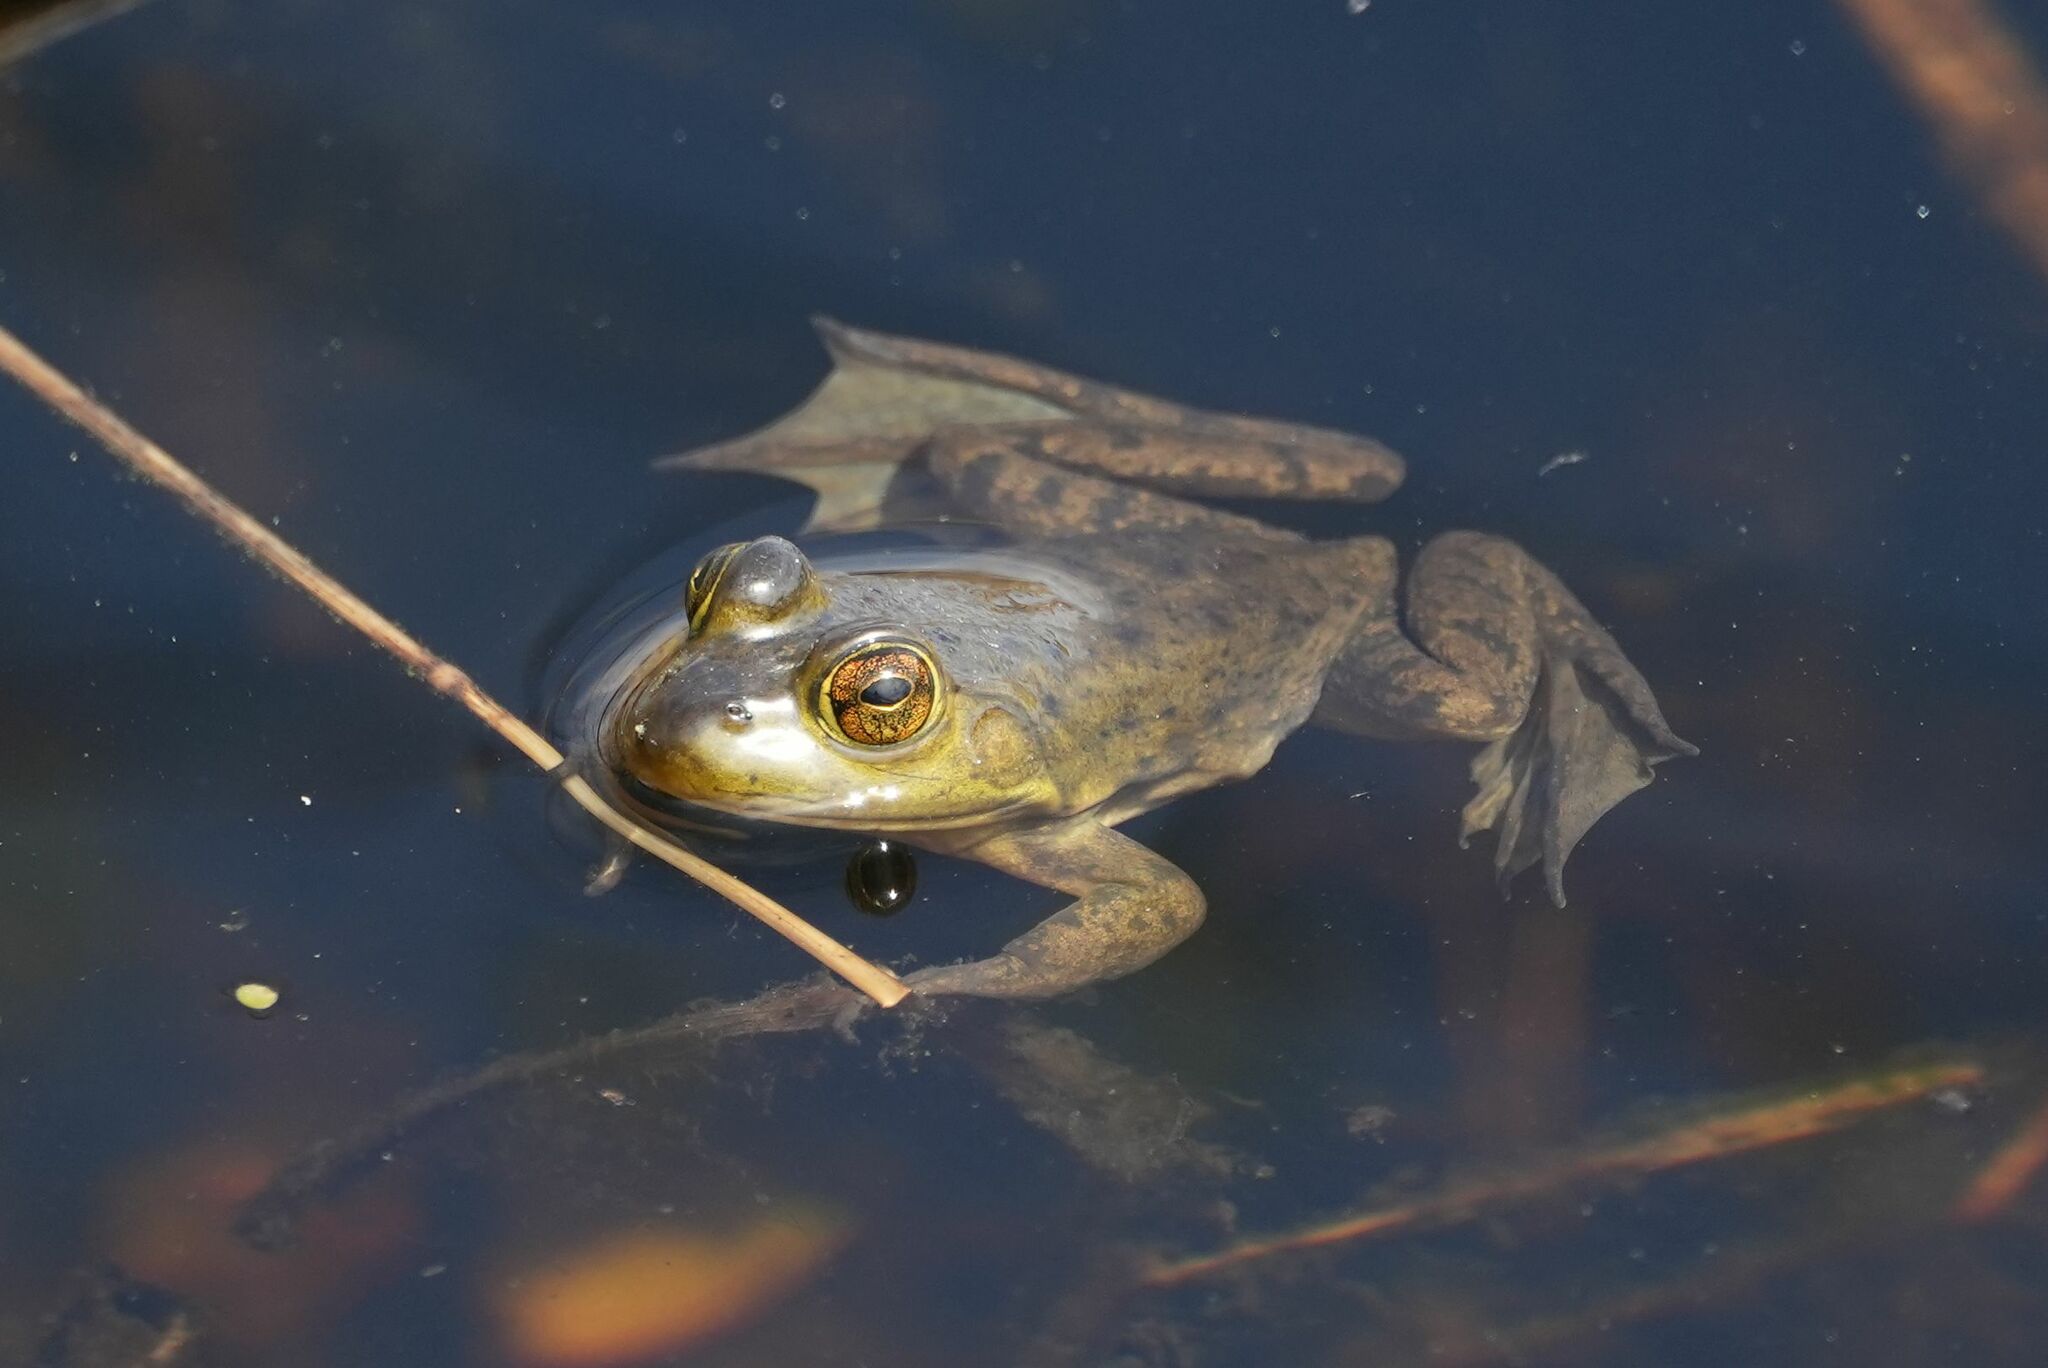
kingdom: Animalia
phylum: Chordata
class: Amphibia
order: Anura
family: Ranidae
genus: Lithobates
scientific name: Lithobates catesbeianus
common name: American bullfrog
